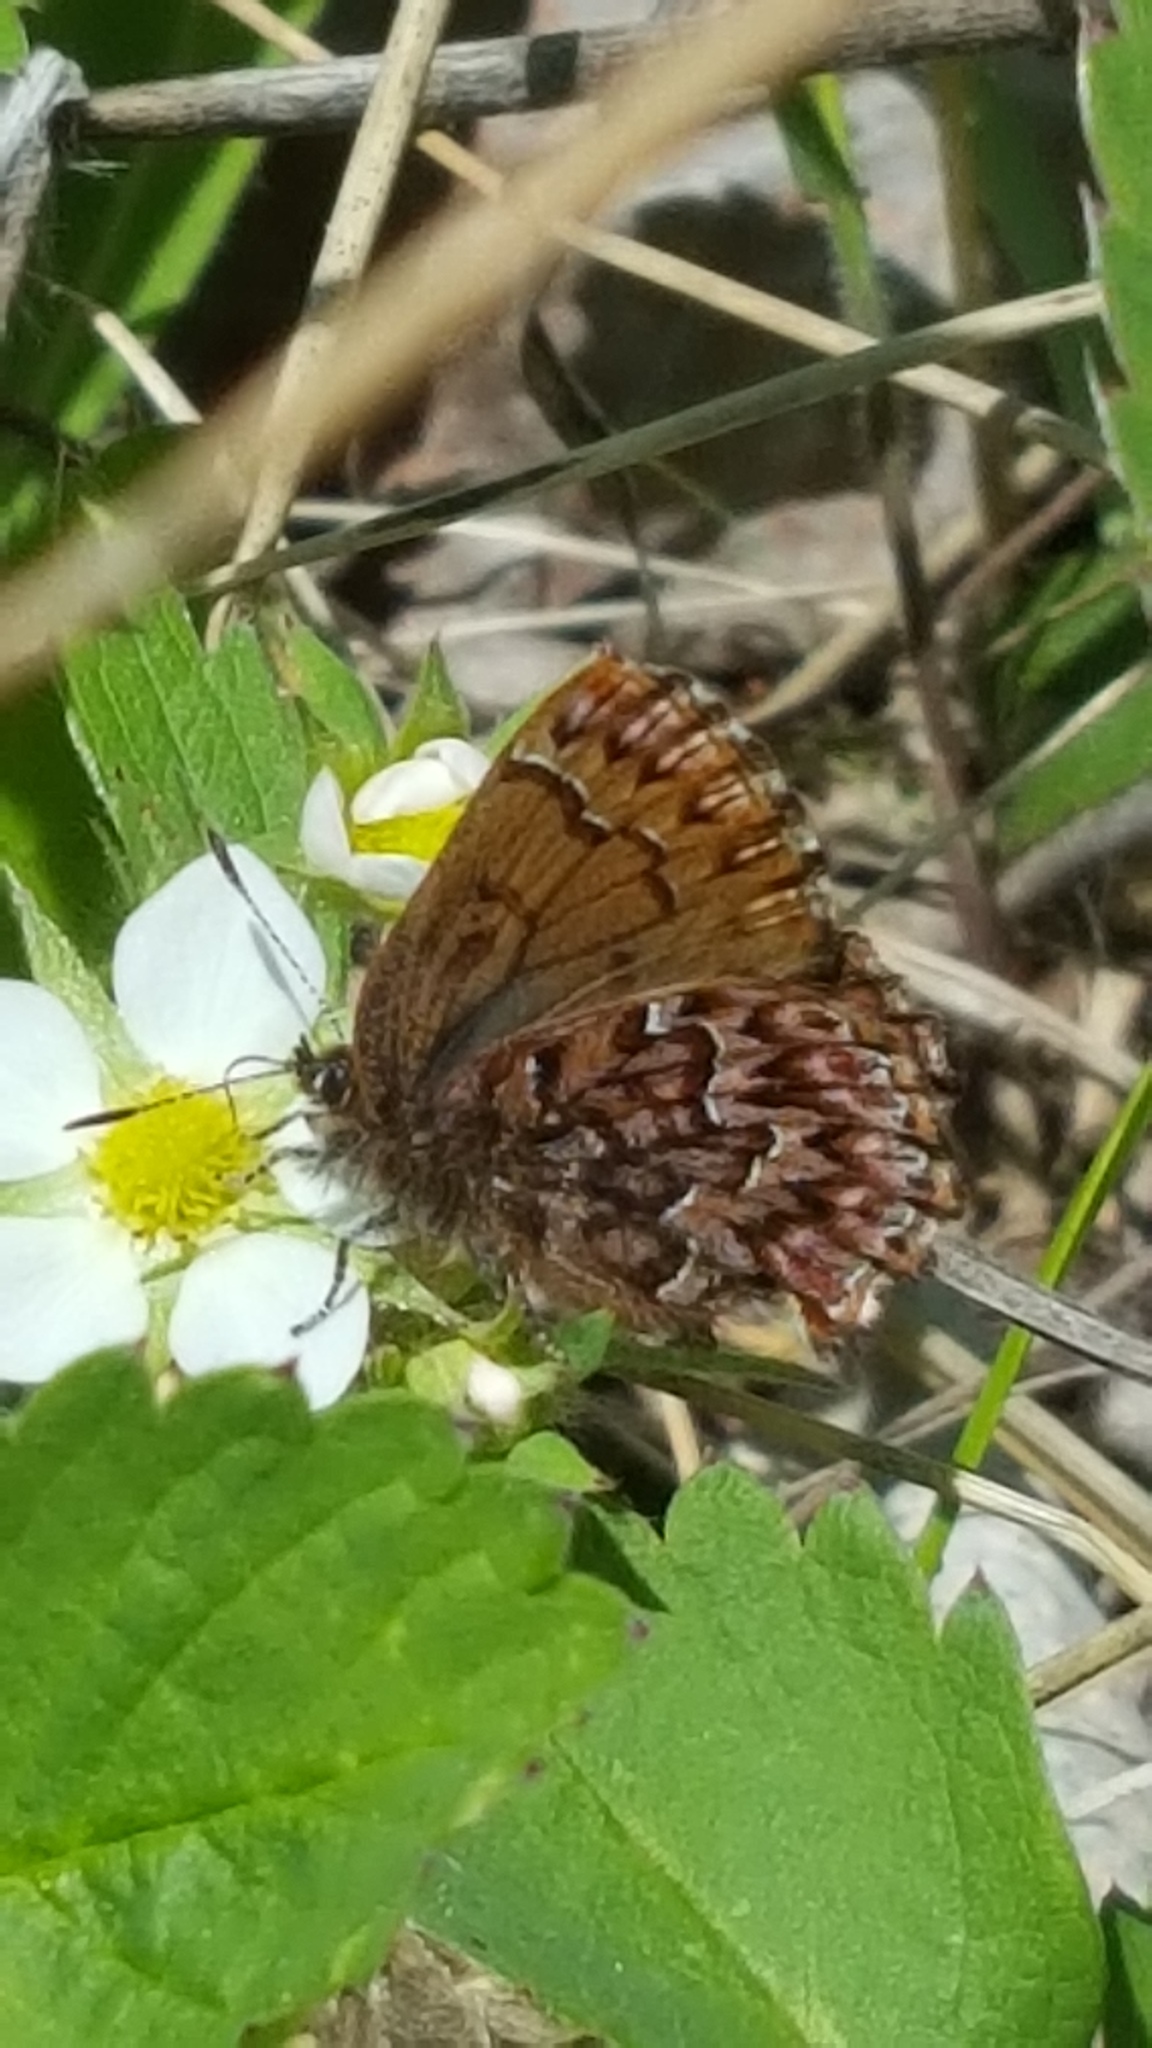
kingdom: Animalia
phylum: Arthropoda
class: Insecta
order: Lepidoptera
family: Lycaenidae
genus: Incisalia
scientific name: Incisalia eryphon
